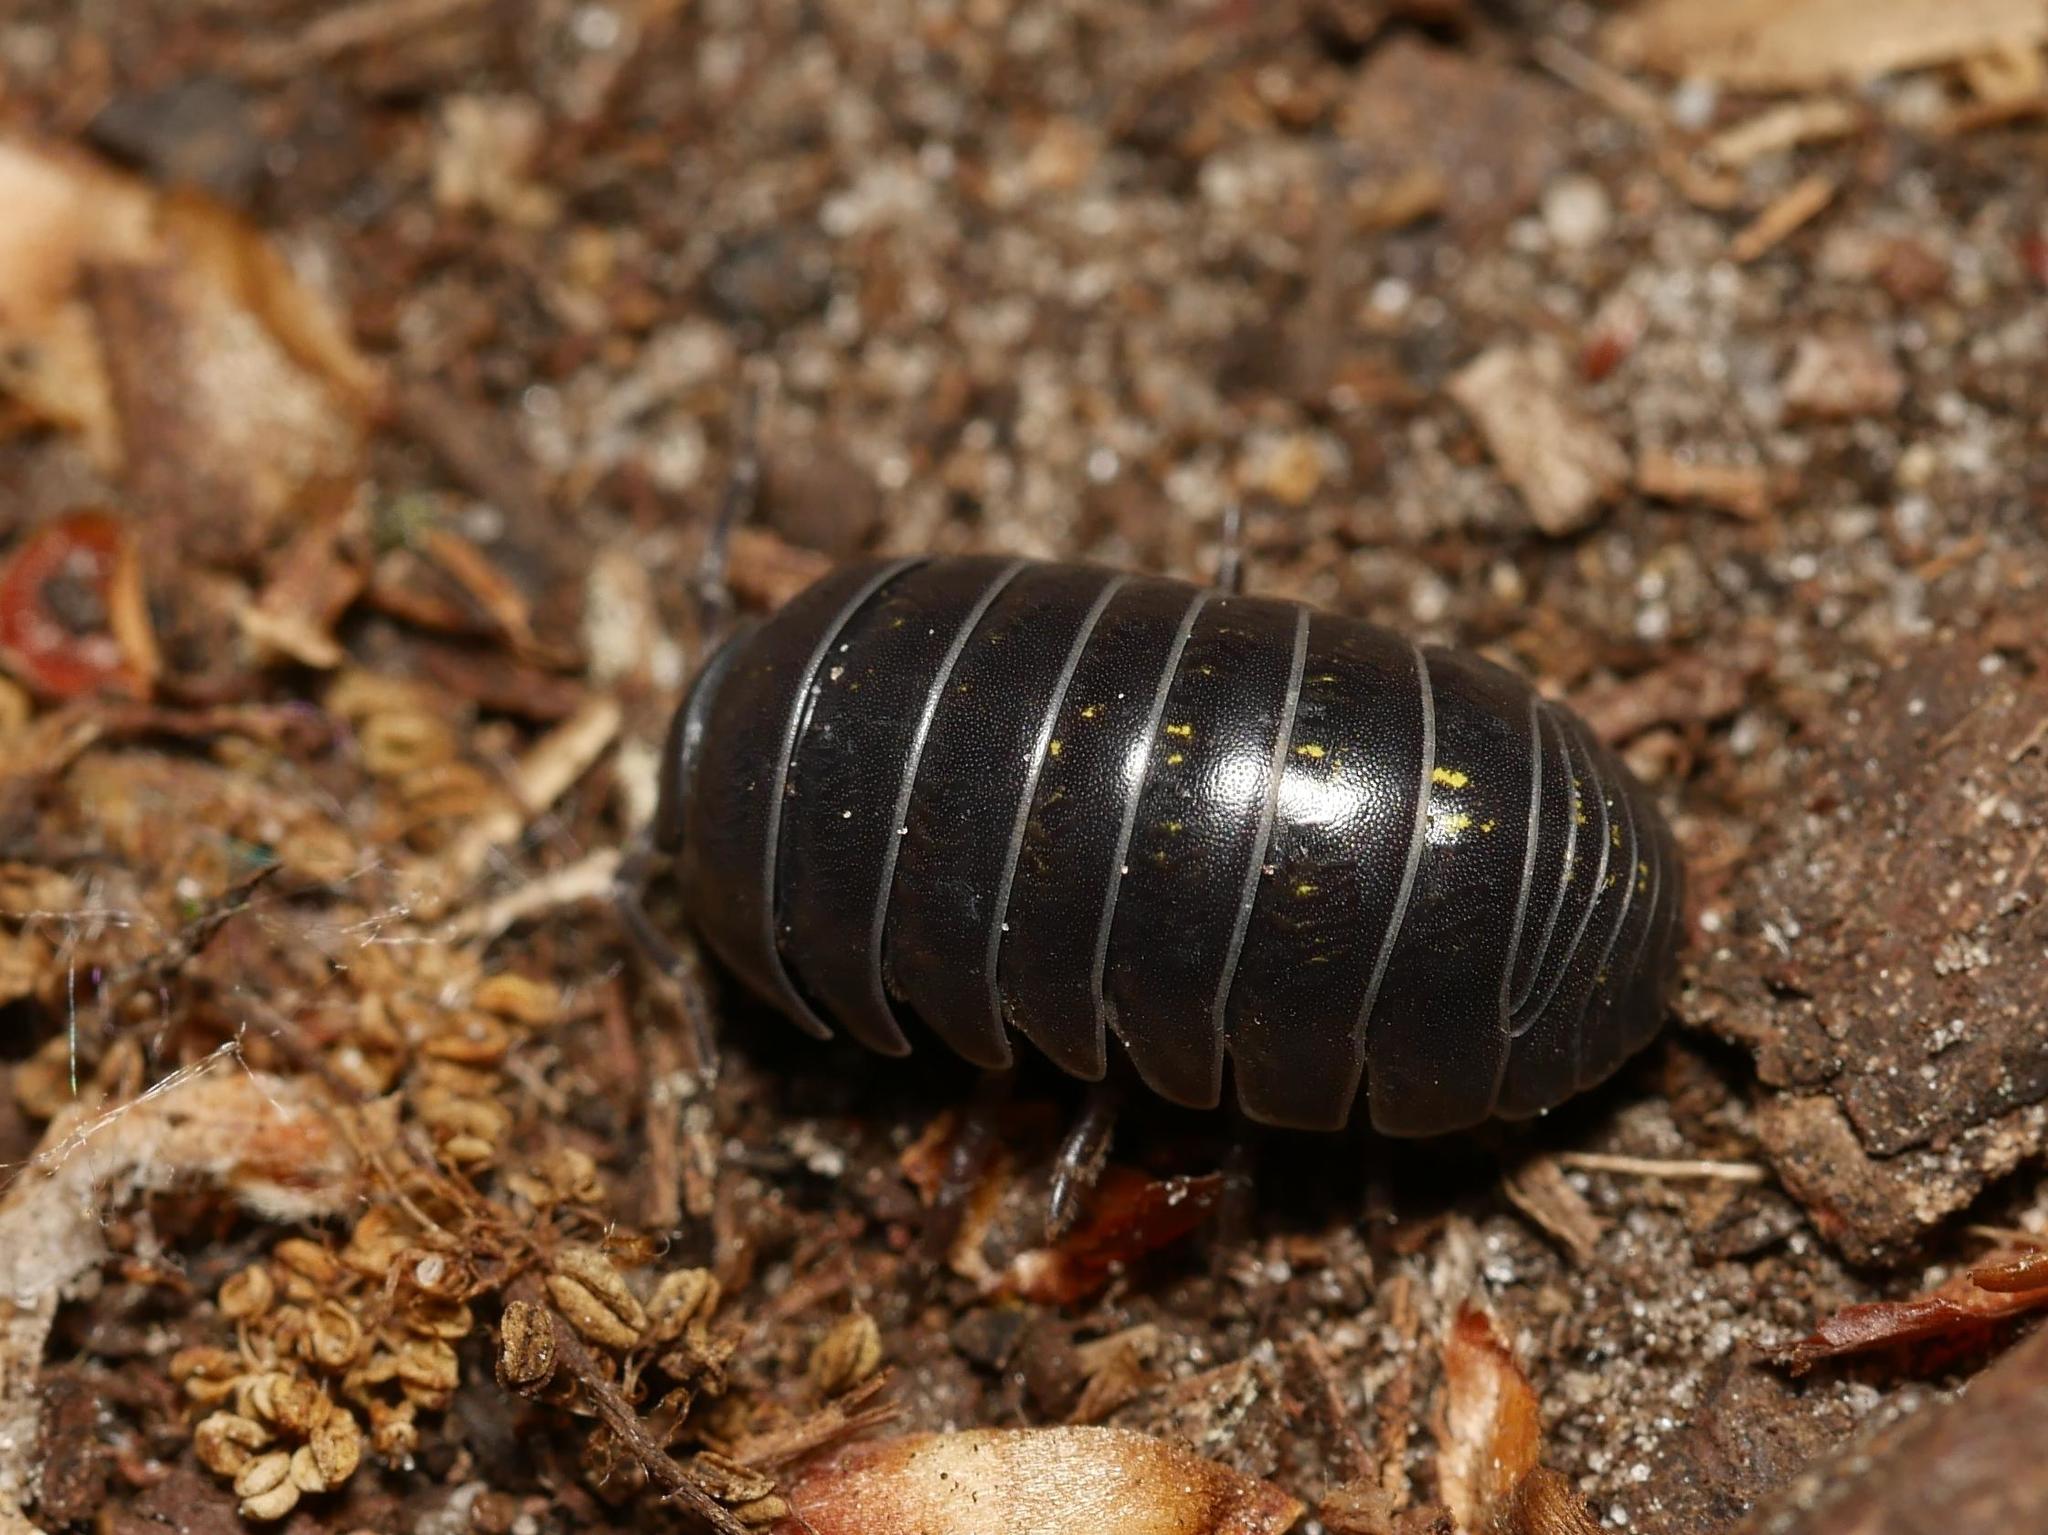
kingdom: Animalia
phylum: Arthropoda
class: Malacostraca
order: Isopoda
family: Armadillidiidae
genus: Armadillidium
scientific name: Armadillidium vulgare
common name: Common pill woodlouse
